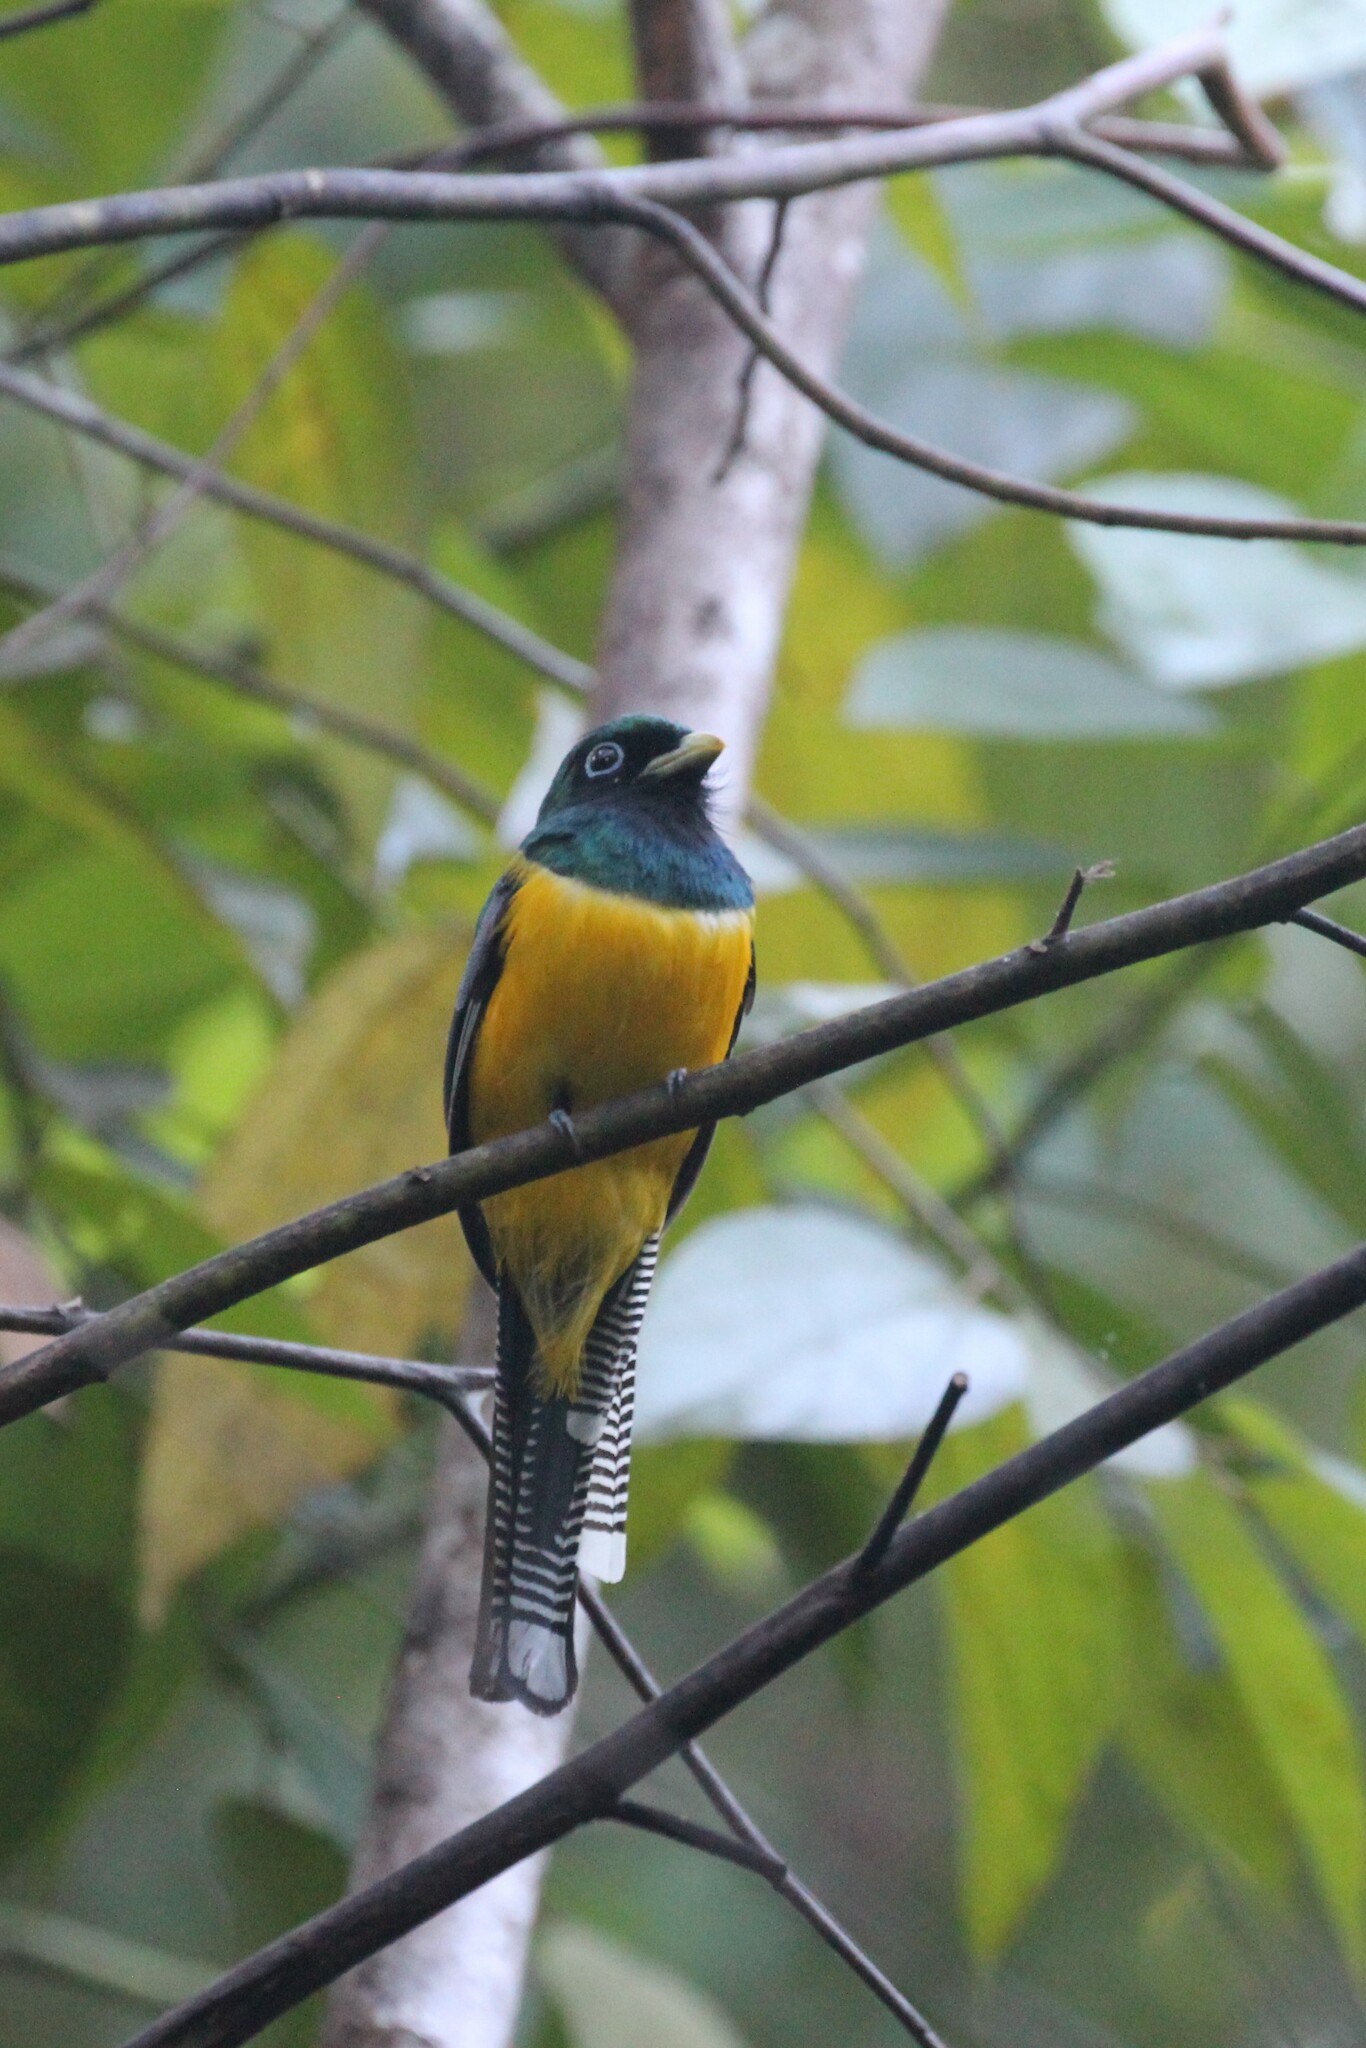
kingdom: Animalia
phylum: Chordata
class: Aves
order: Trogoniformes
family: Trogonidae
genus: Trogon
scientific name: Trogon rufus
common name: Black-throated trogon
